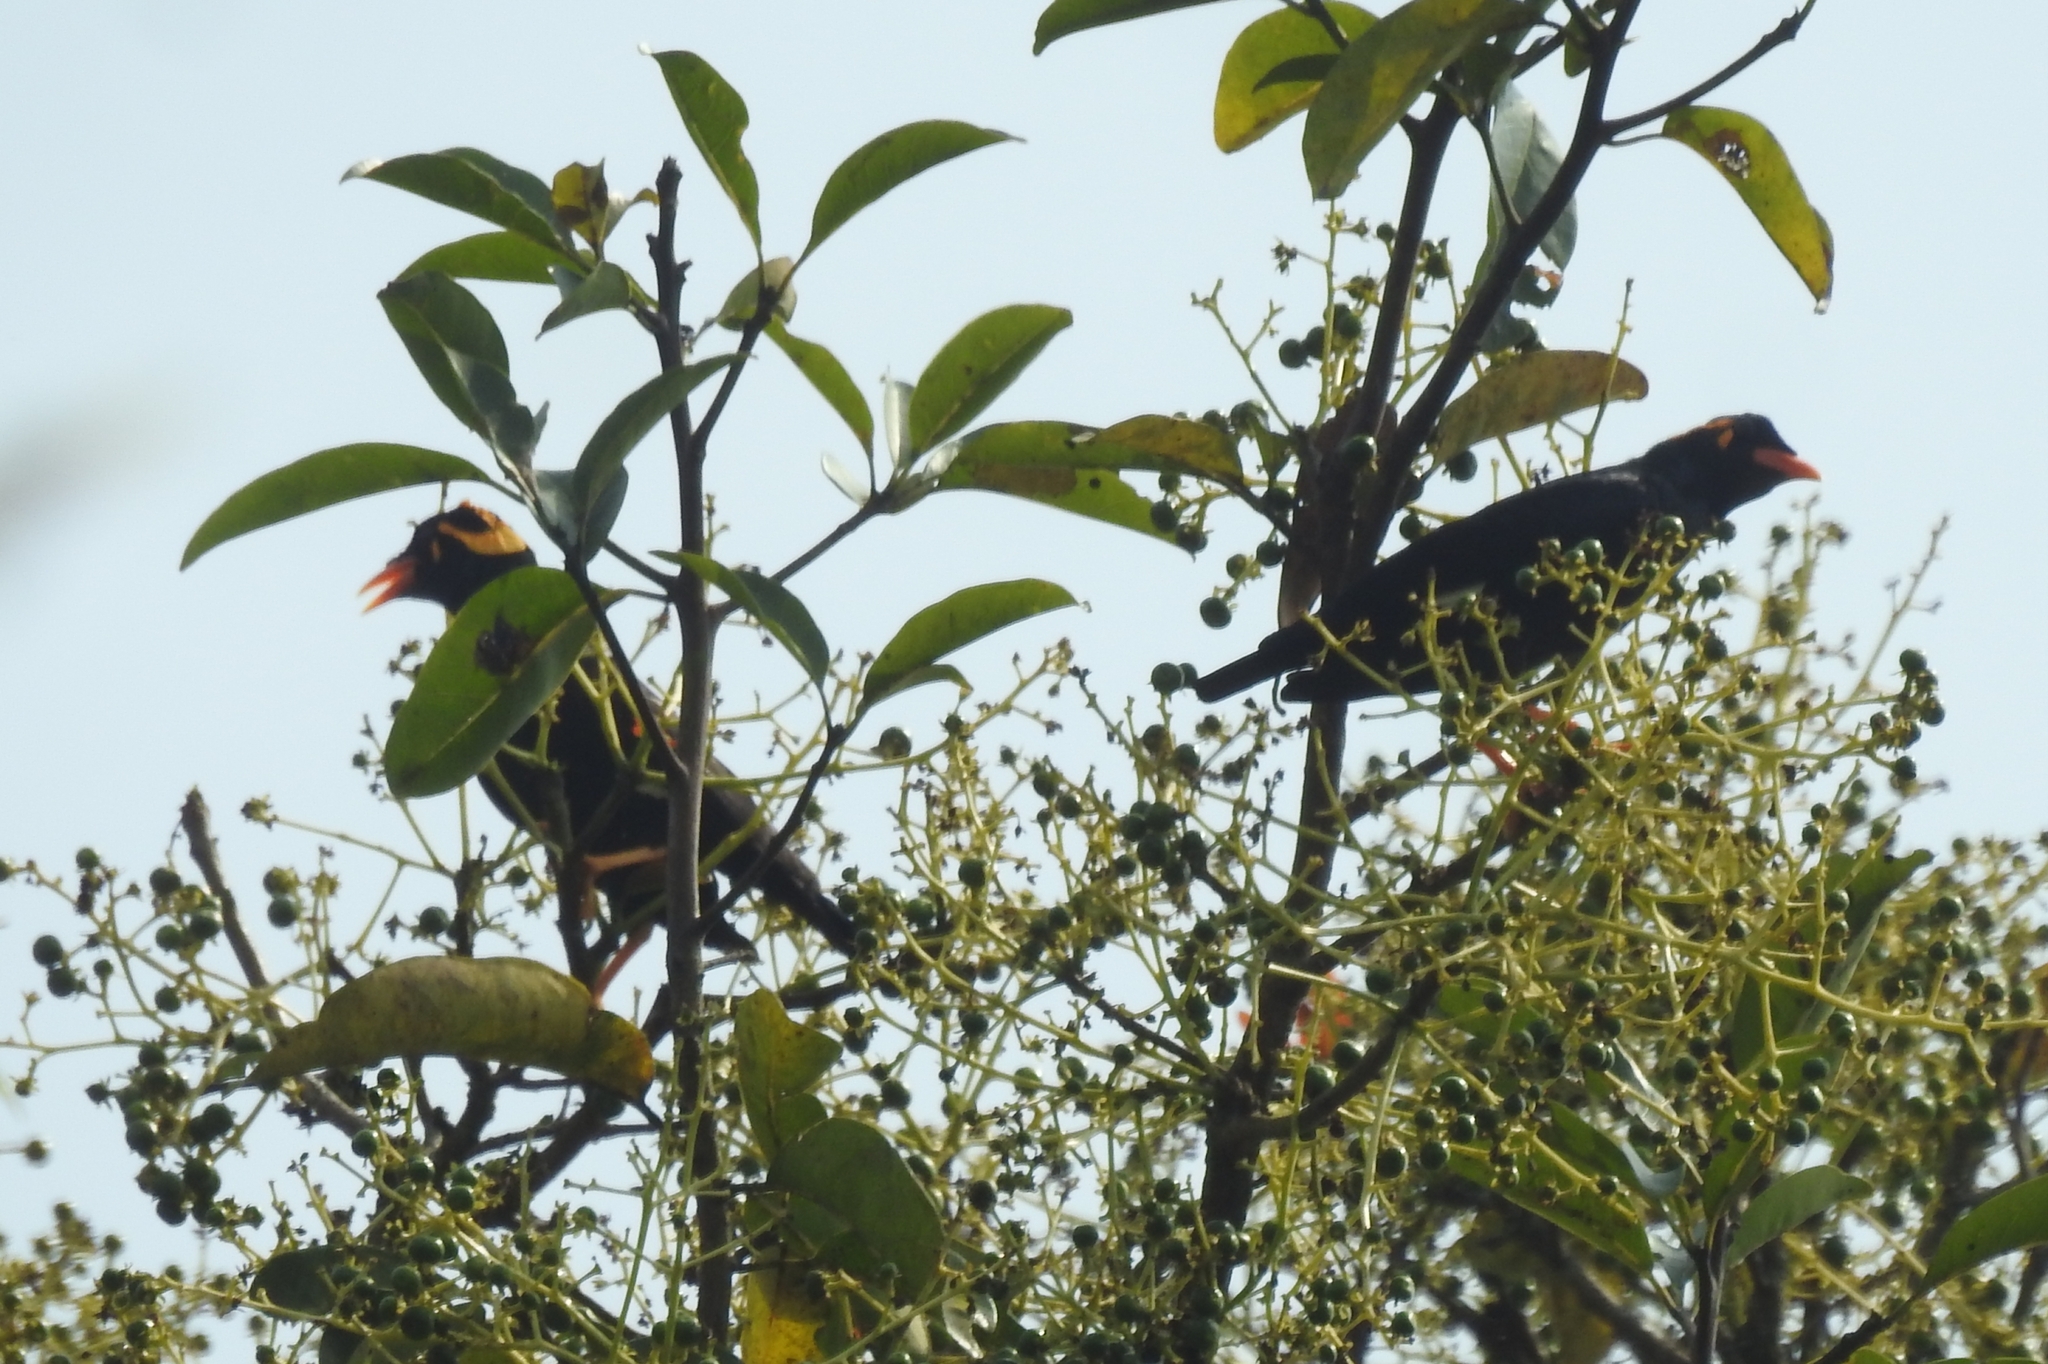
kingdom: Animalia
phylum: Chordata
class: Aves
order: Passeriformes
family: Sturnidae
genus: Gracula
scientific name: Gracula indica
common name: Southern hill myna
